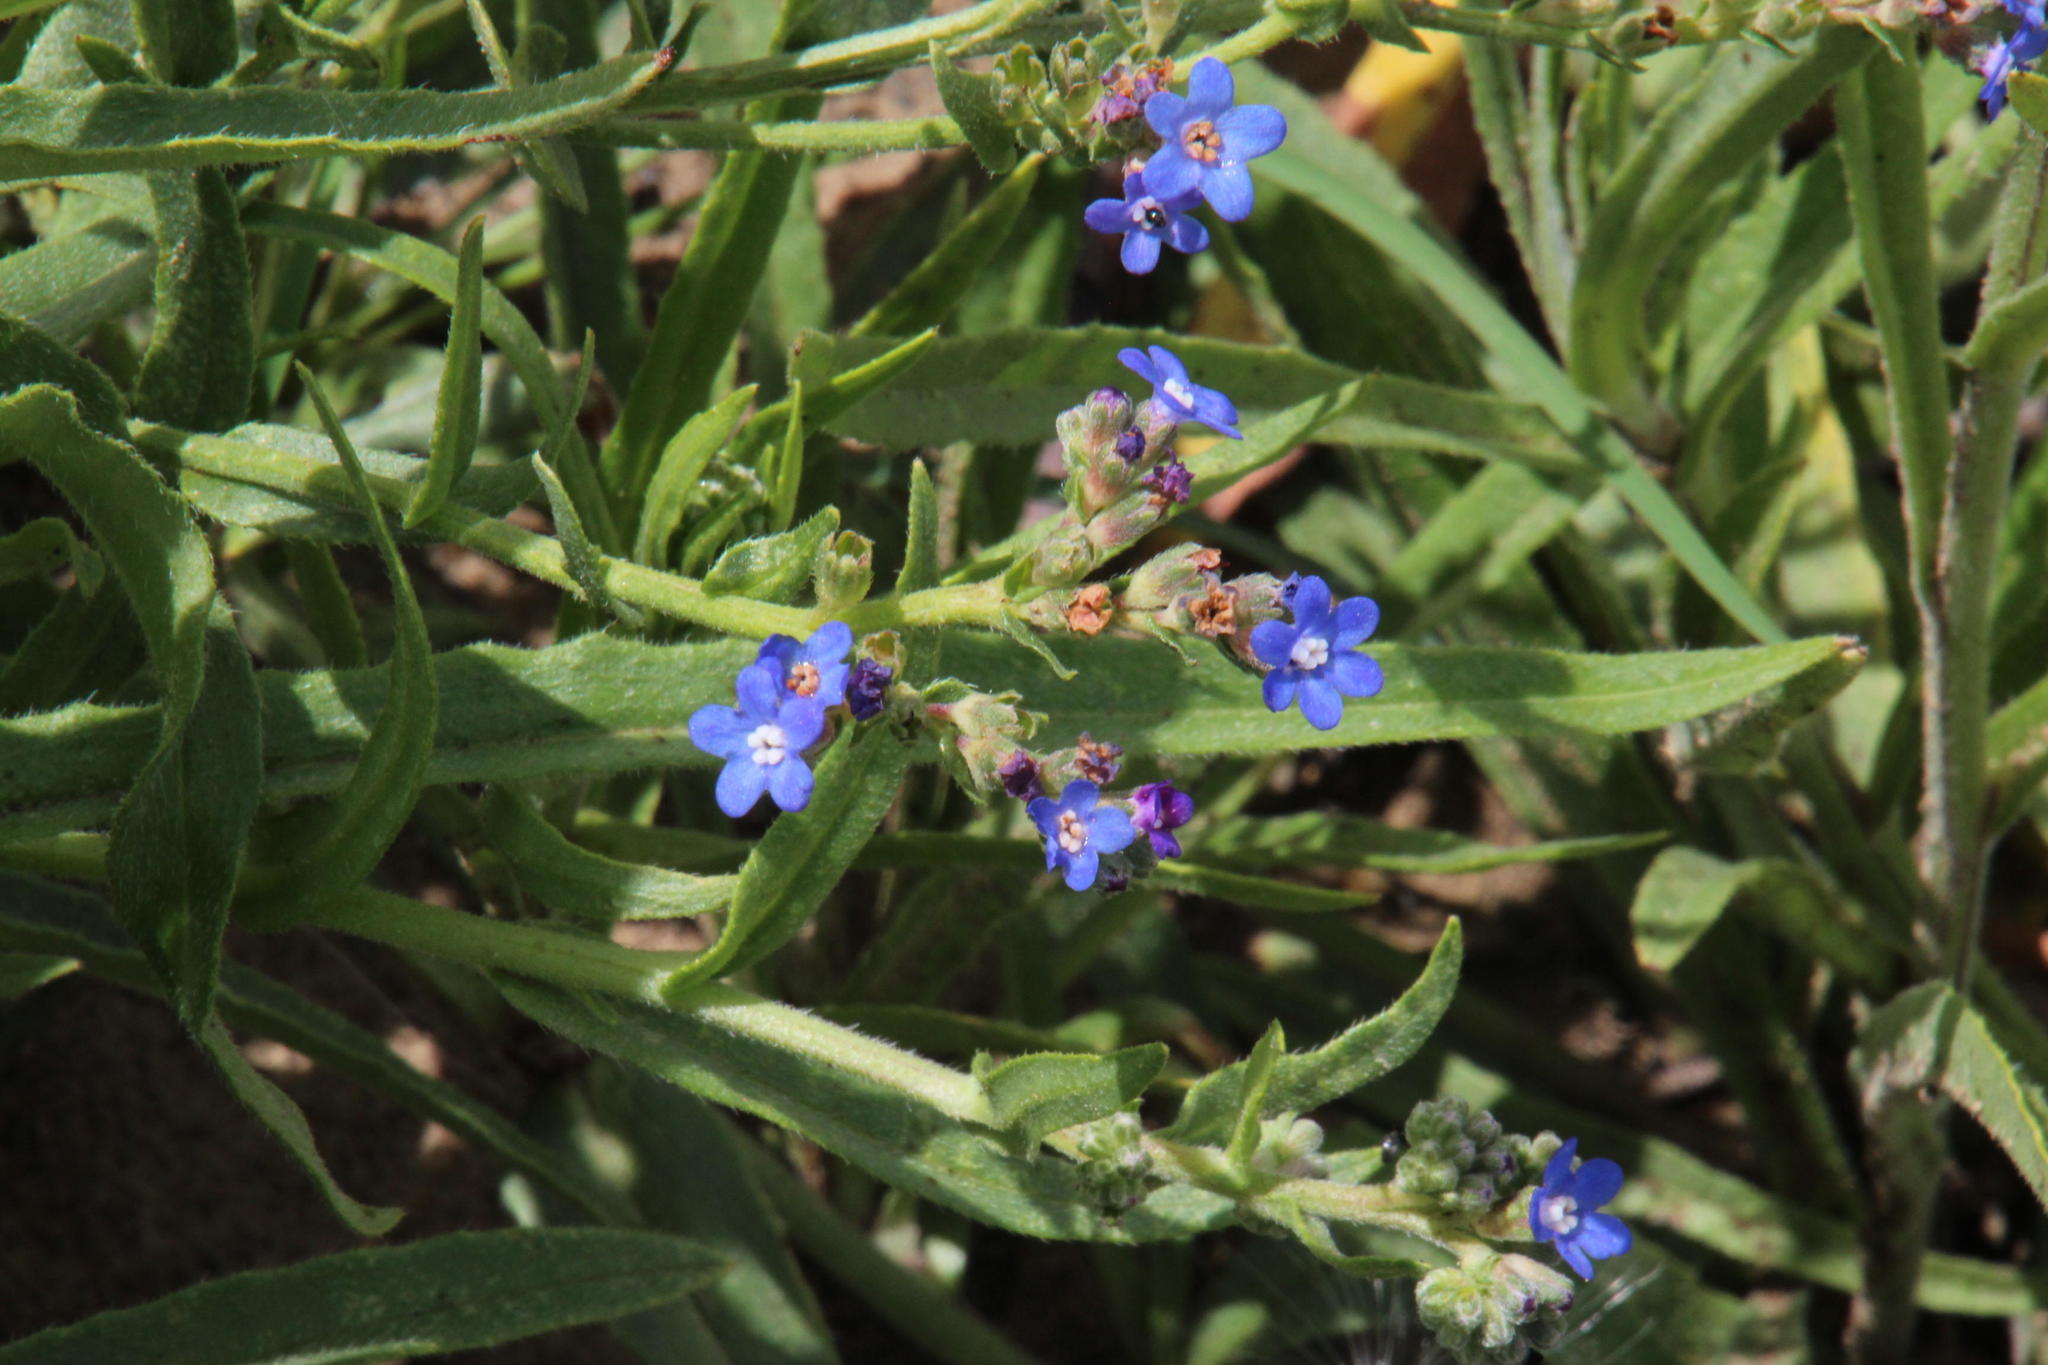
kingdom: Plantae
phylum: Tracheophyta
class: Magnoliopsida
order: Boraginales
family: Boraginaceae
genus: Anchusa
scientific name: Anchusa capensis
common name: Cape bugloss
